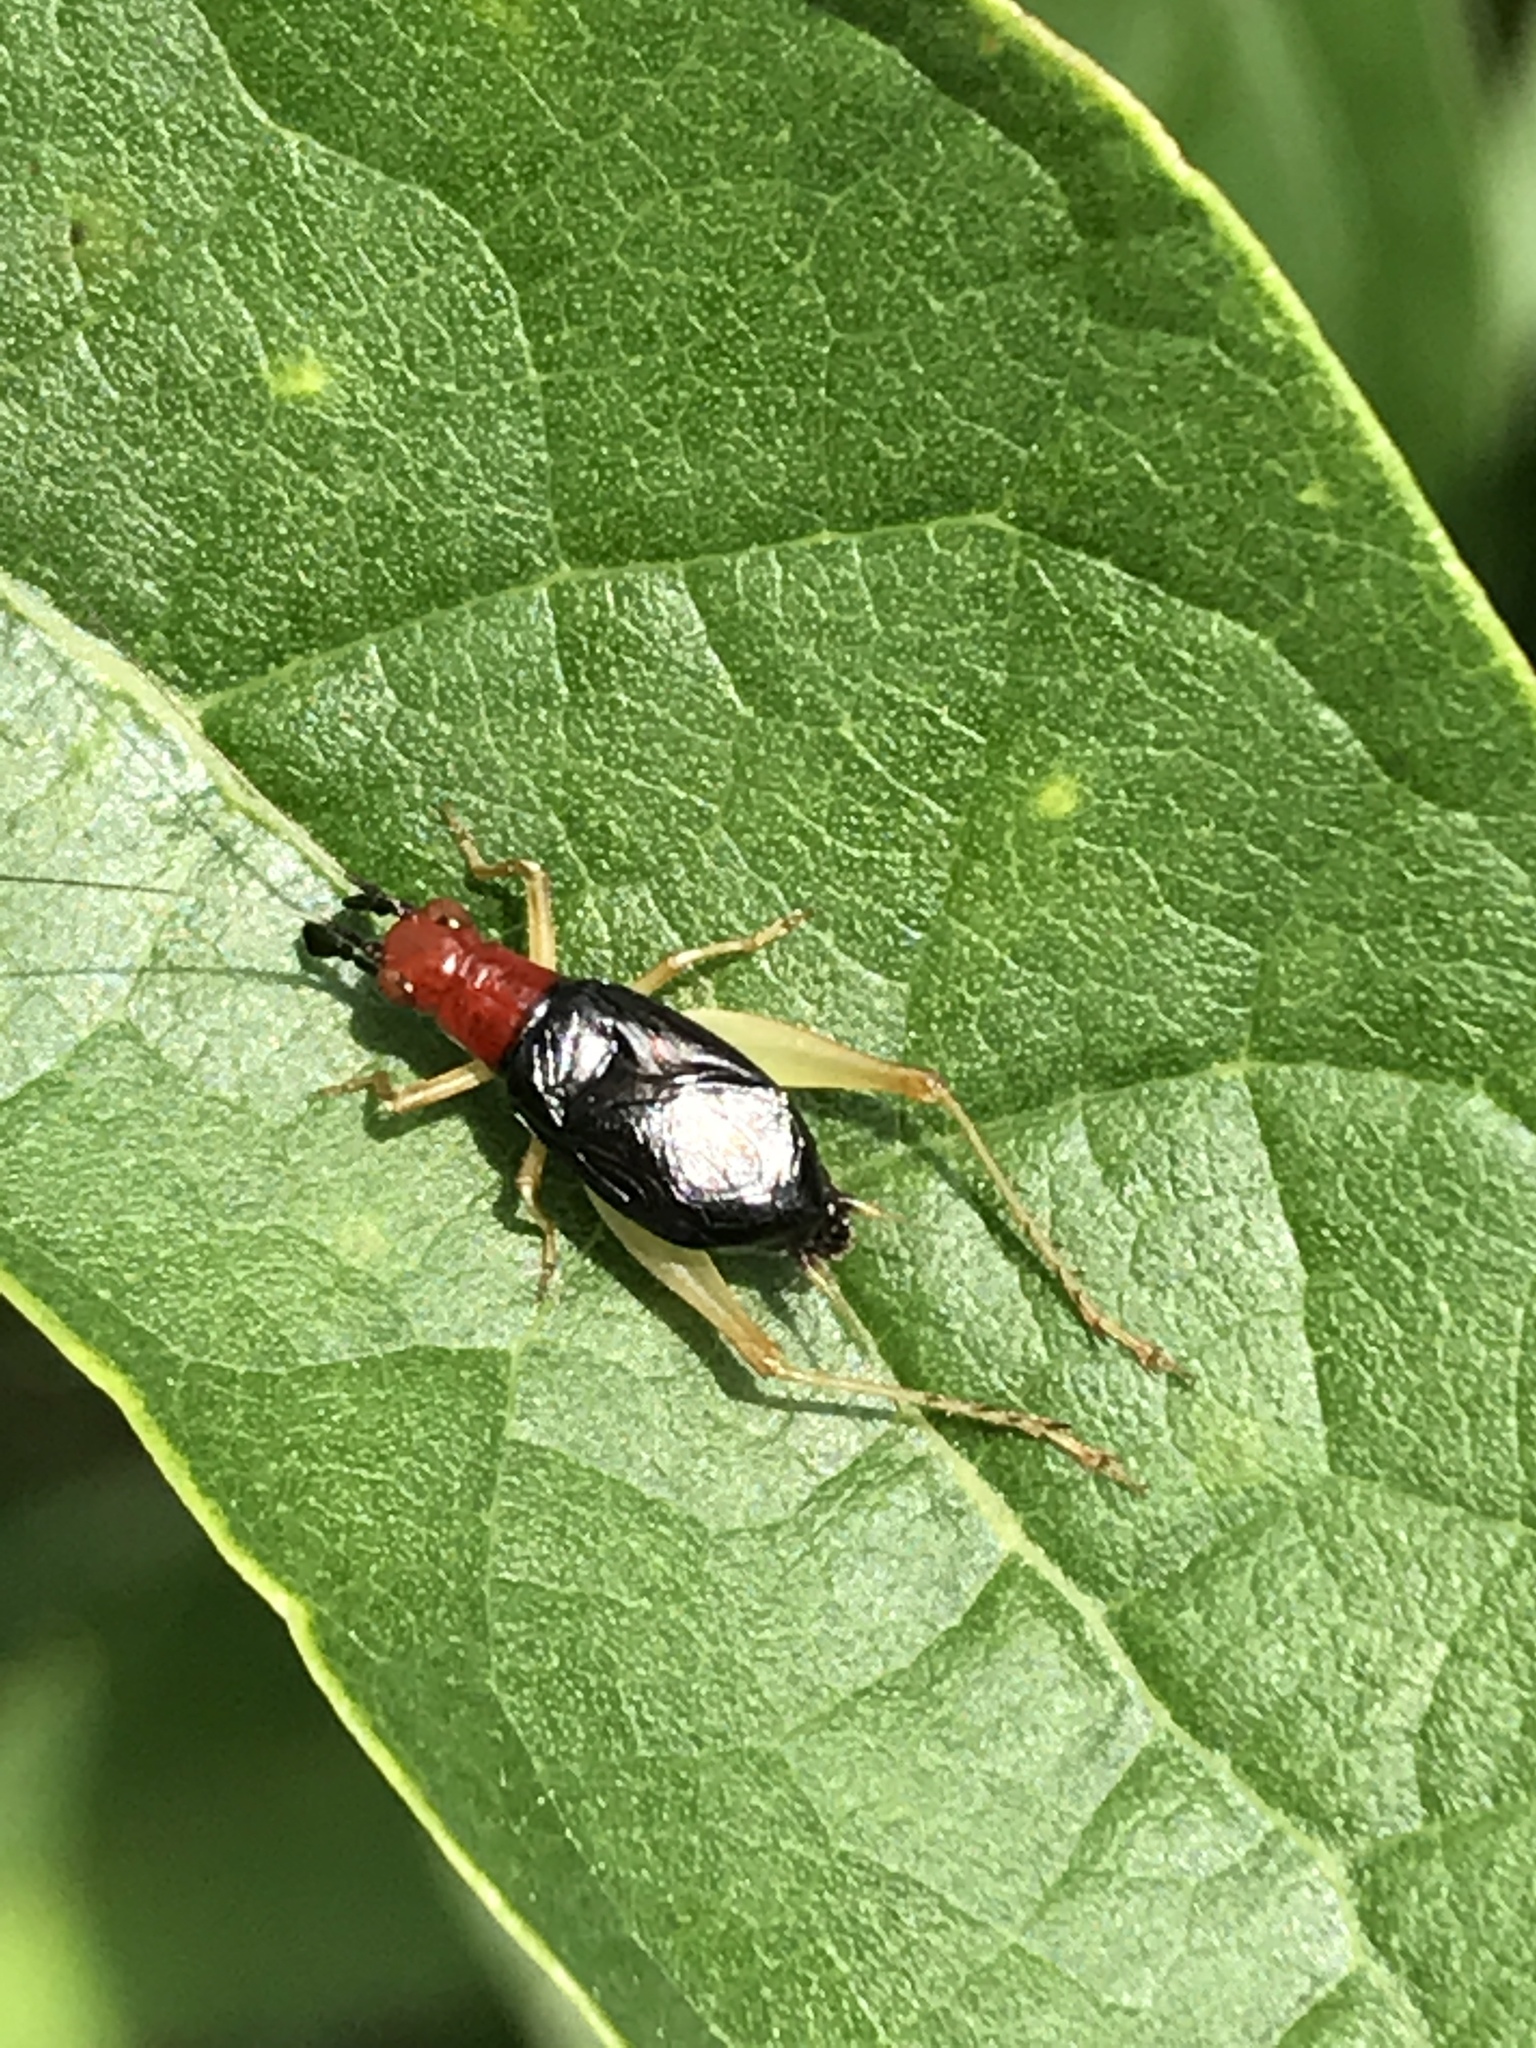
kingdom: Animalia
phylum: Arthropoda
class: Insecta
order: Orthoptera
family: Trigonidiidae
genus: Phyllopalpus
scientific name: Phyllopalpus pulchellus
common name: Handsome trig
